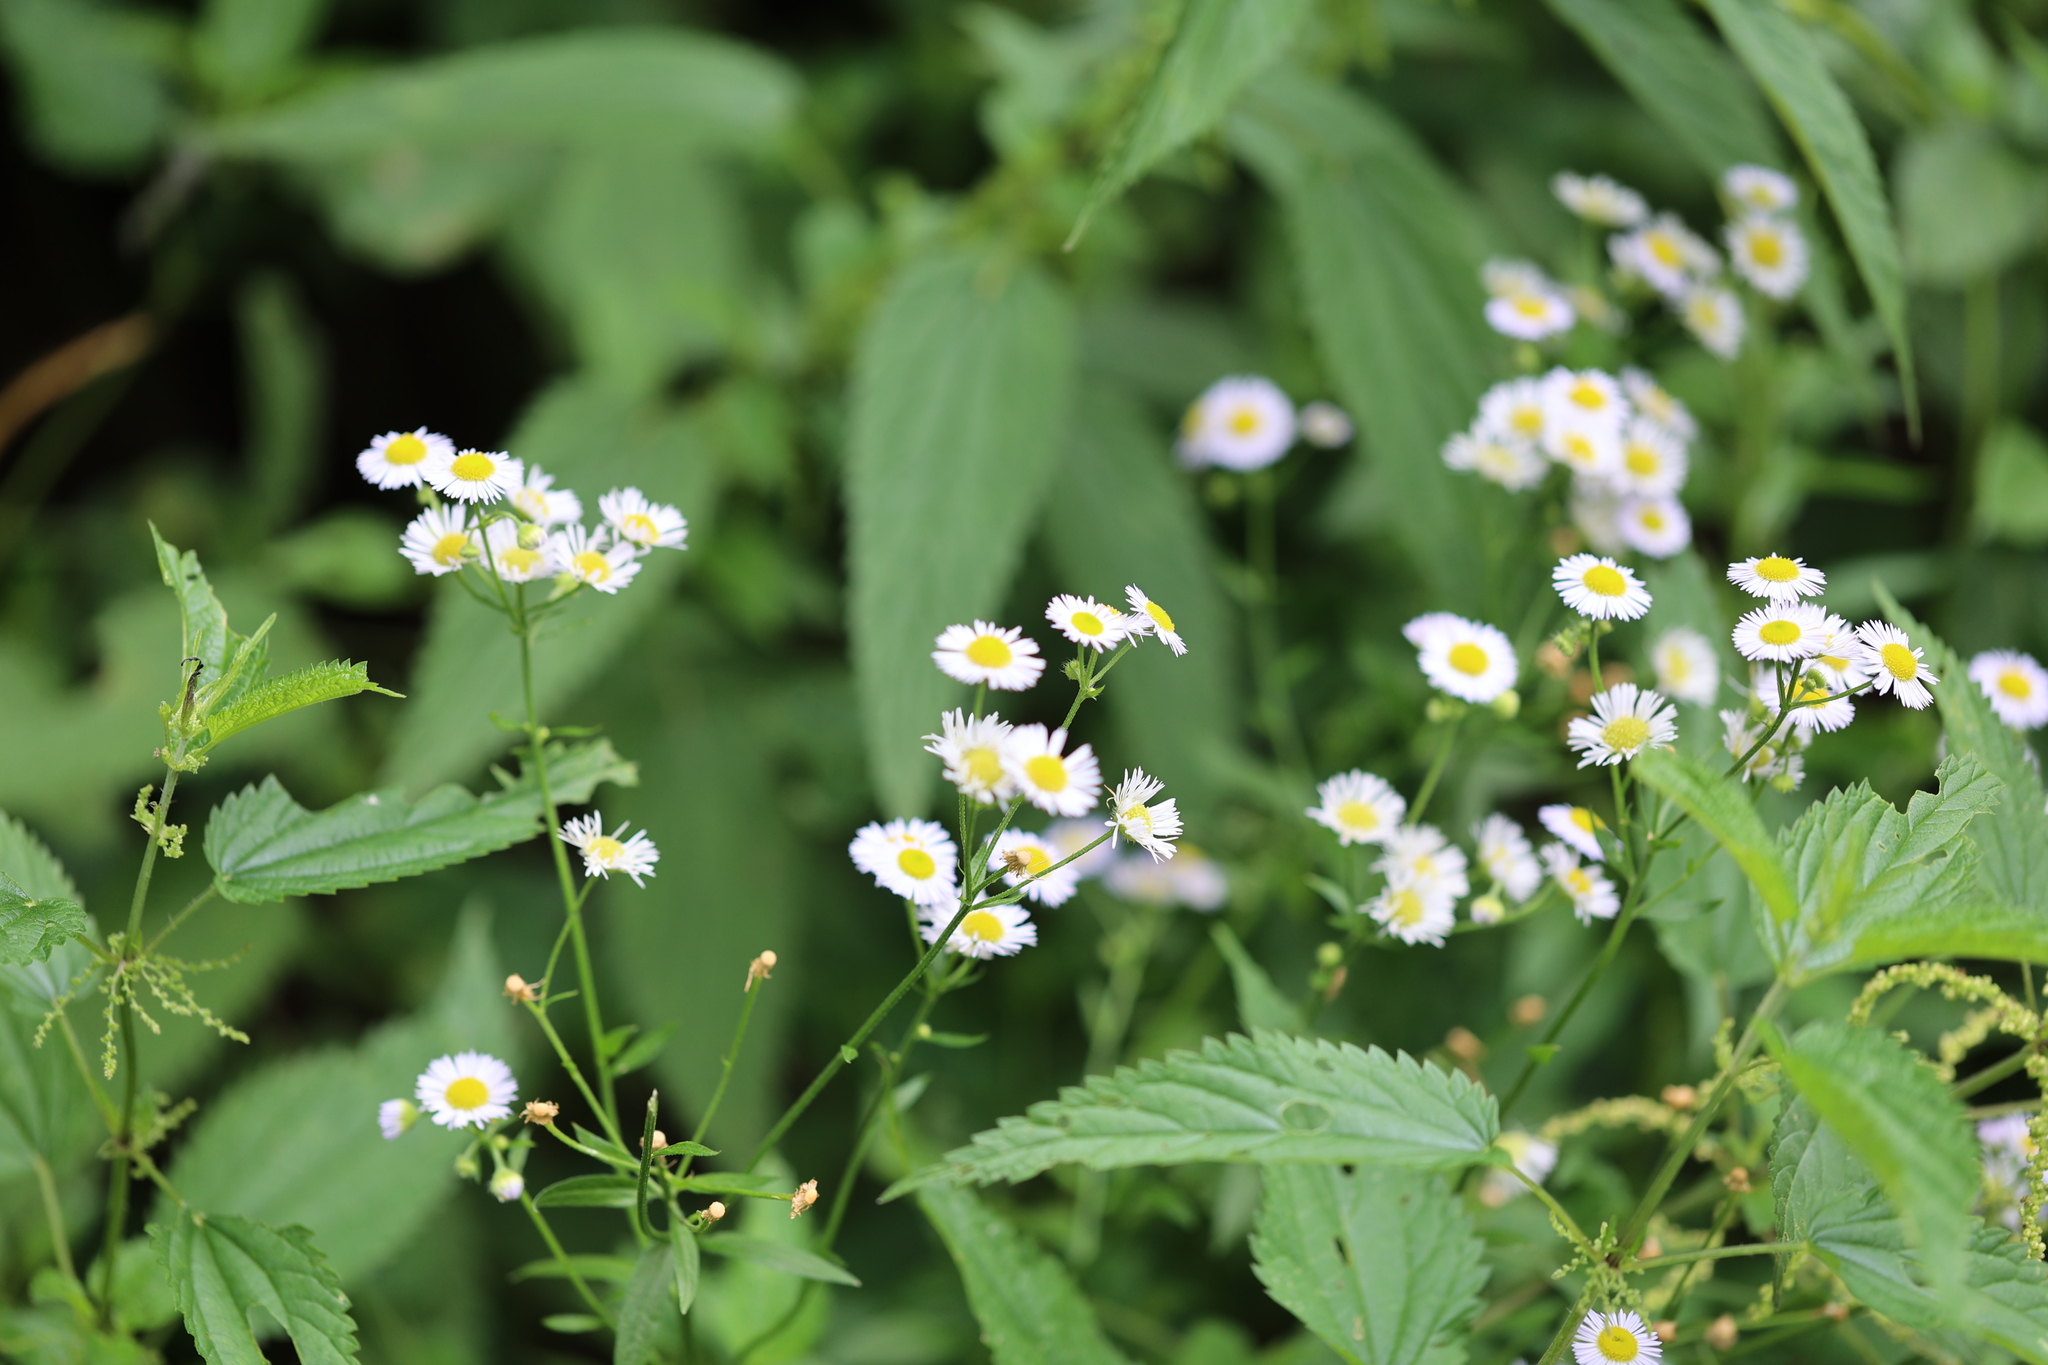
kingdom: Plantae
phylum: Tracheophyta
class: Magnoliopsida
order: Asterales
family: Asteraceae
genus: Erigeron
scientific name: Erigeron annuus
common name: Tall fleabane
